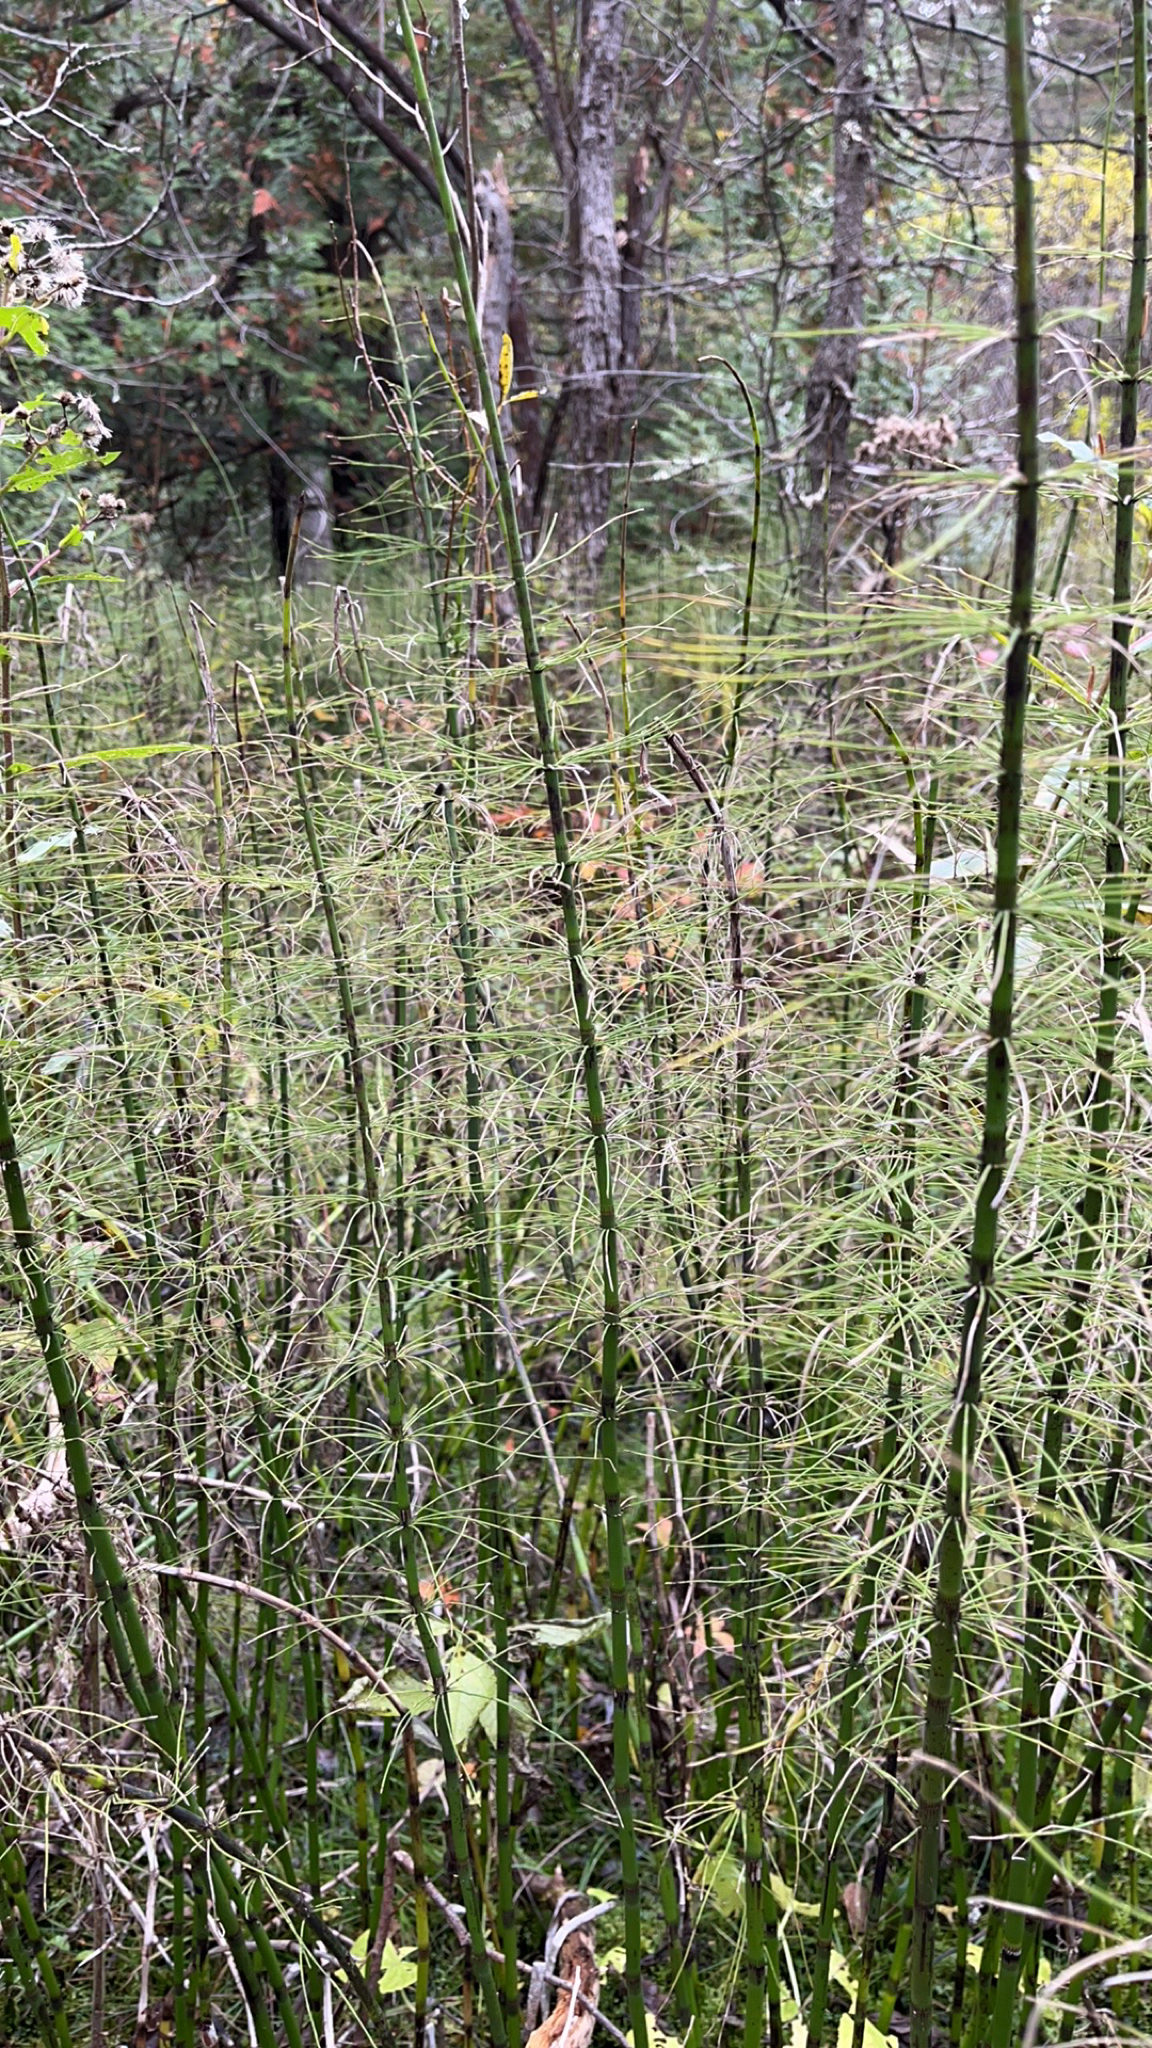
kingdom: Plantae
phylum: Tracheophyta
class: Polypodiopsida
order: Equisetales
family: Equisetaceae
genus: Equisetum
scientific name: Equisetum fluviatile
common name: Water horsetail
